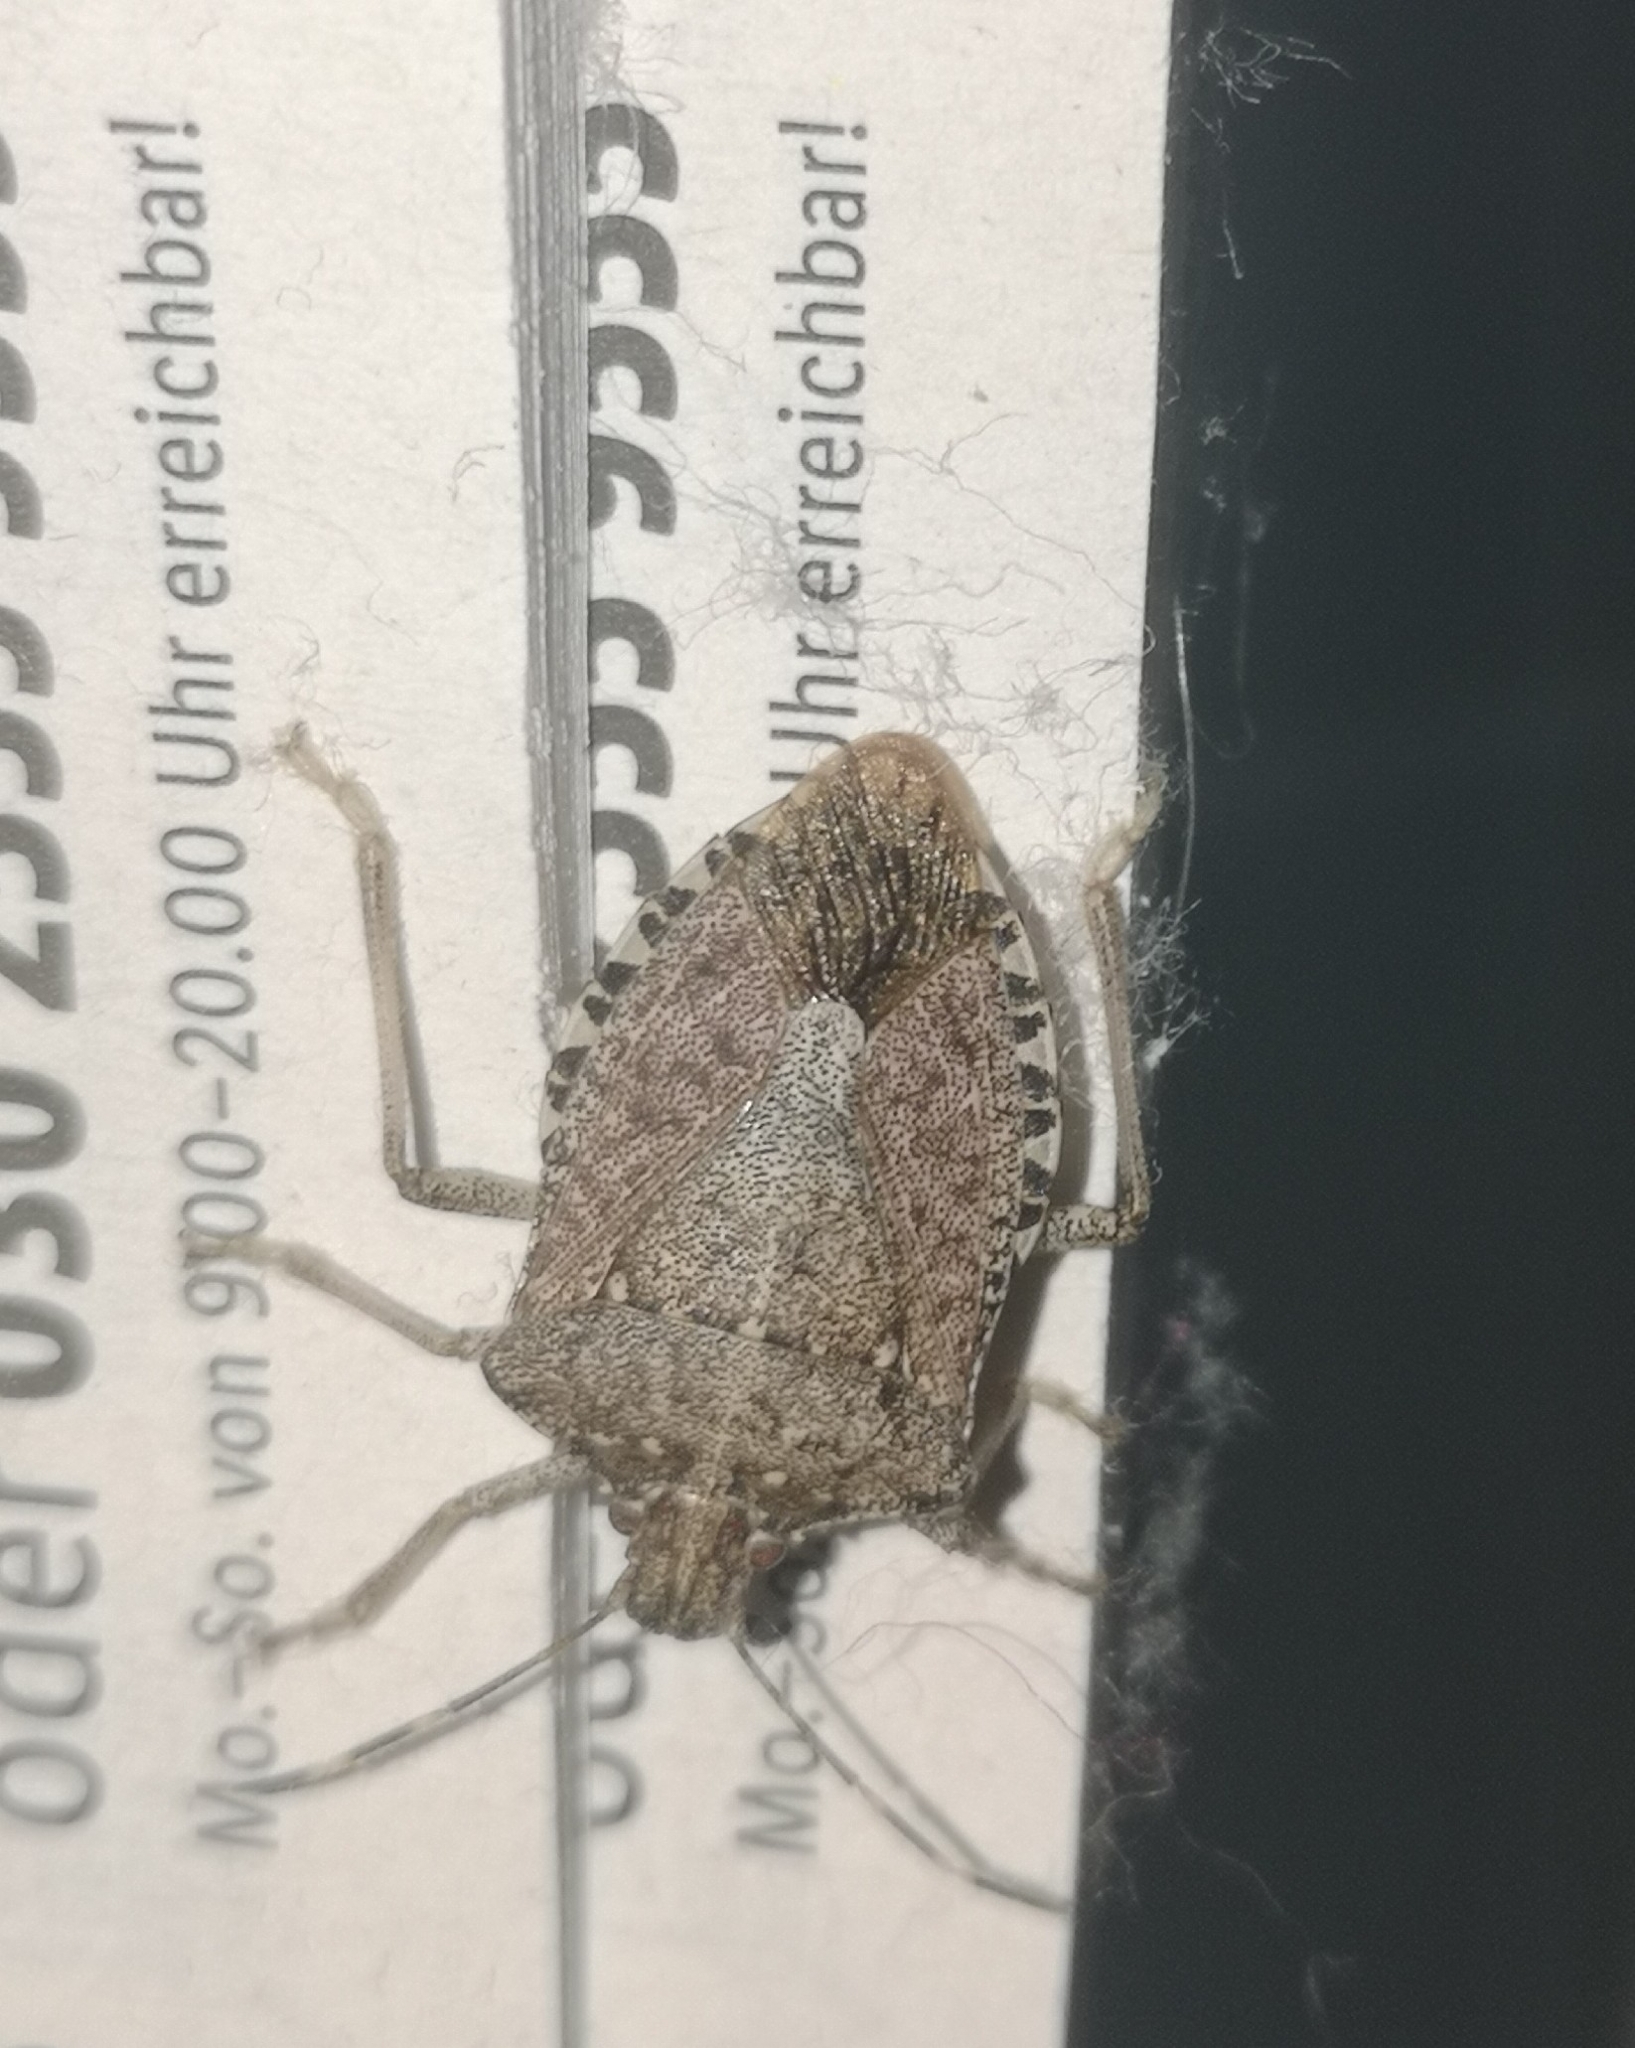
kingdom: Animalia
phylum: Arthropoda
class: Insecta
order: Hemiptera
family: Pentatomidae
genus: Halyomorpha
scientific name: Halyomorpha halys
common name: Brown marmorated stink bug
